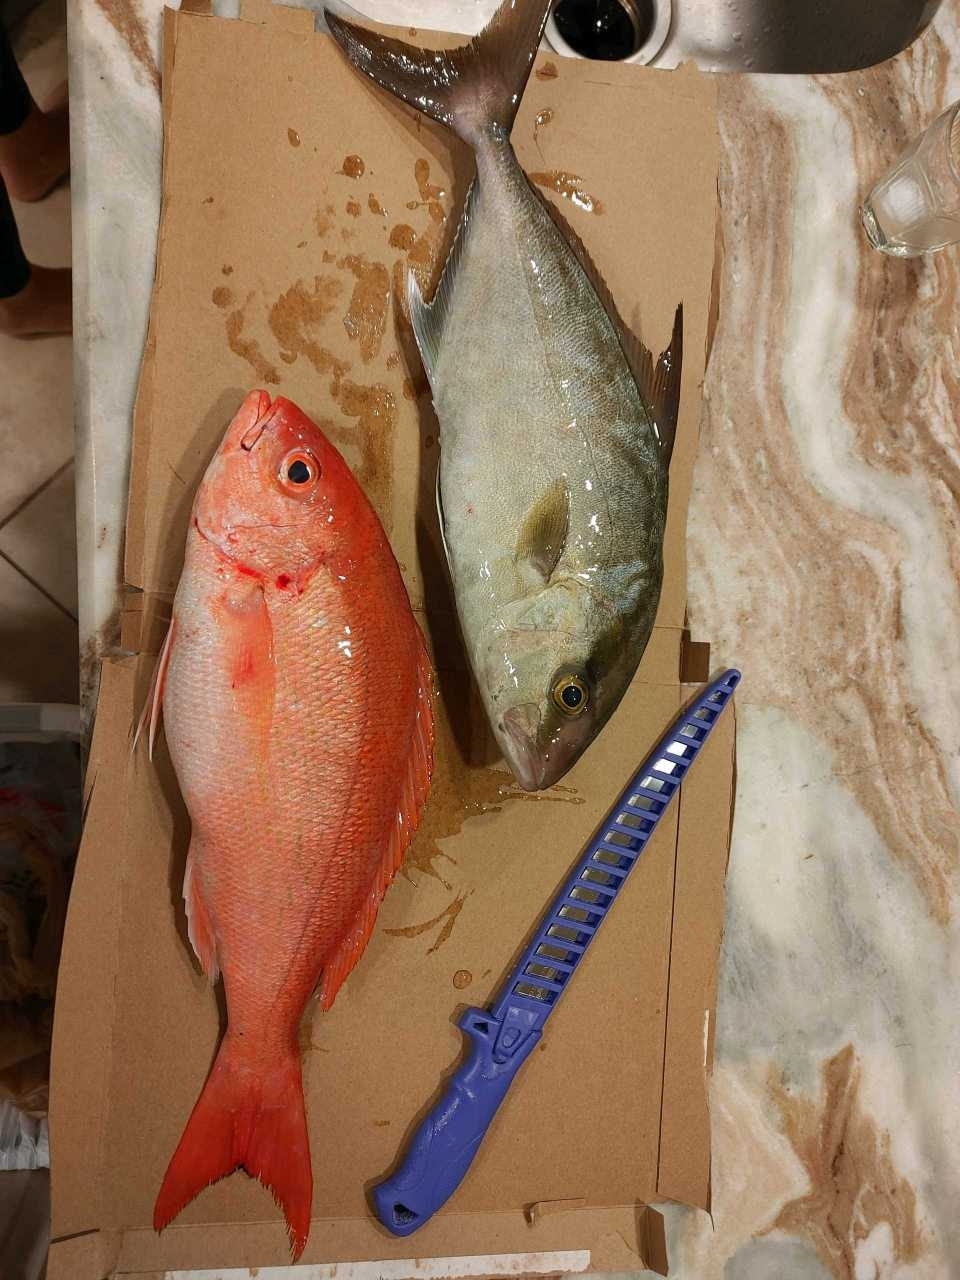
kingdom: Animalia
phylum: Chordata
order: Perciformes
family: Carangidae
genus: Seriola
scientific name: Seriola rivoliana
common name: Almaco jack
